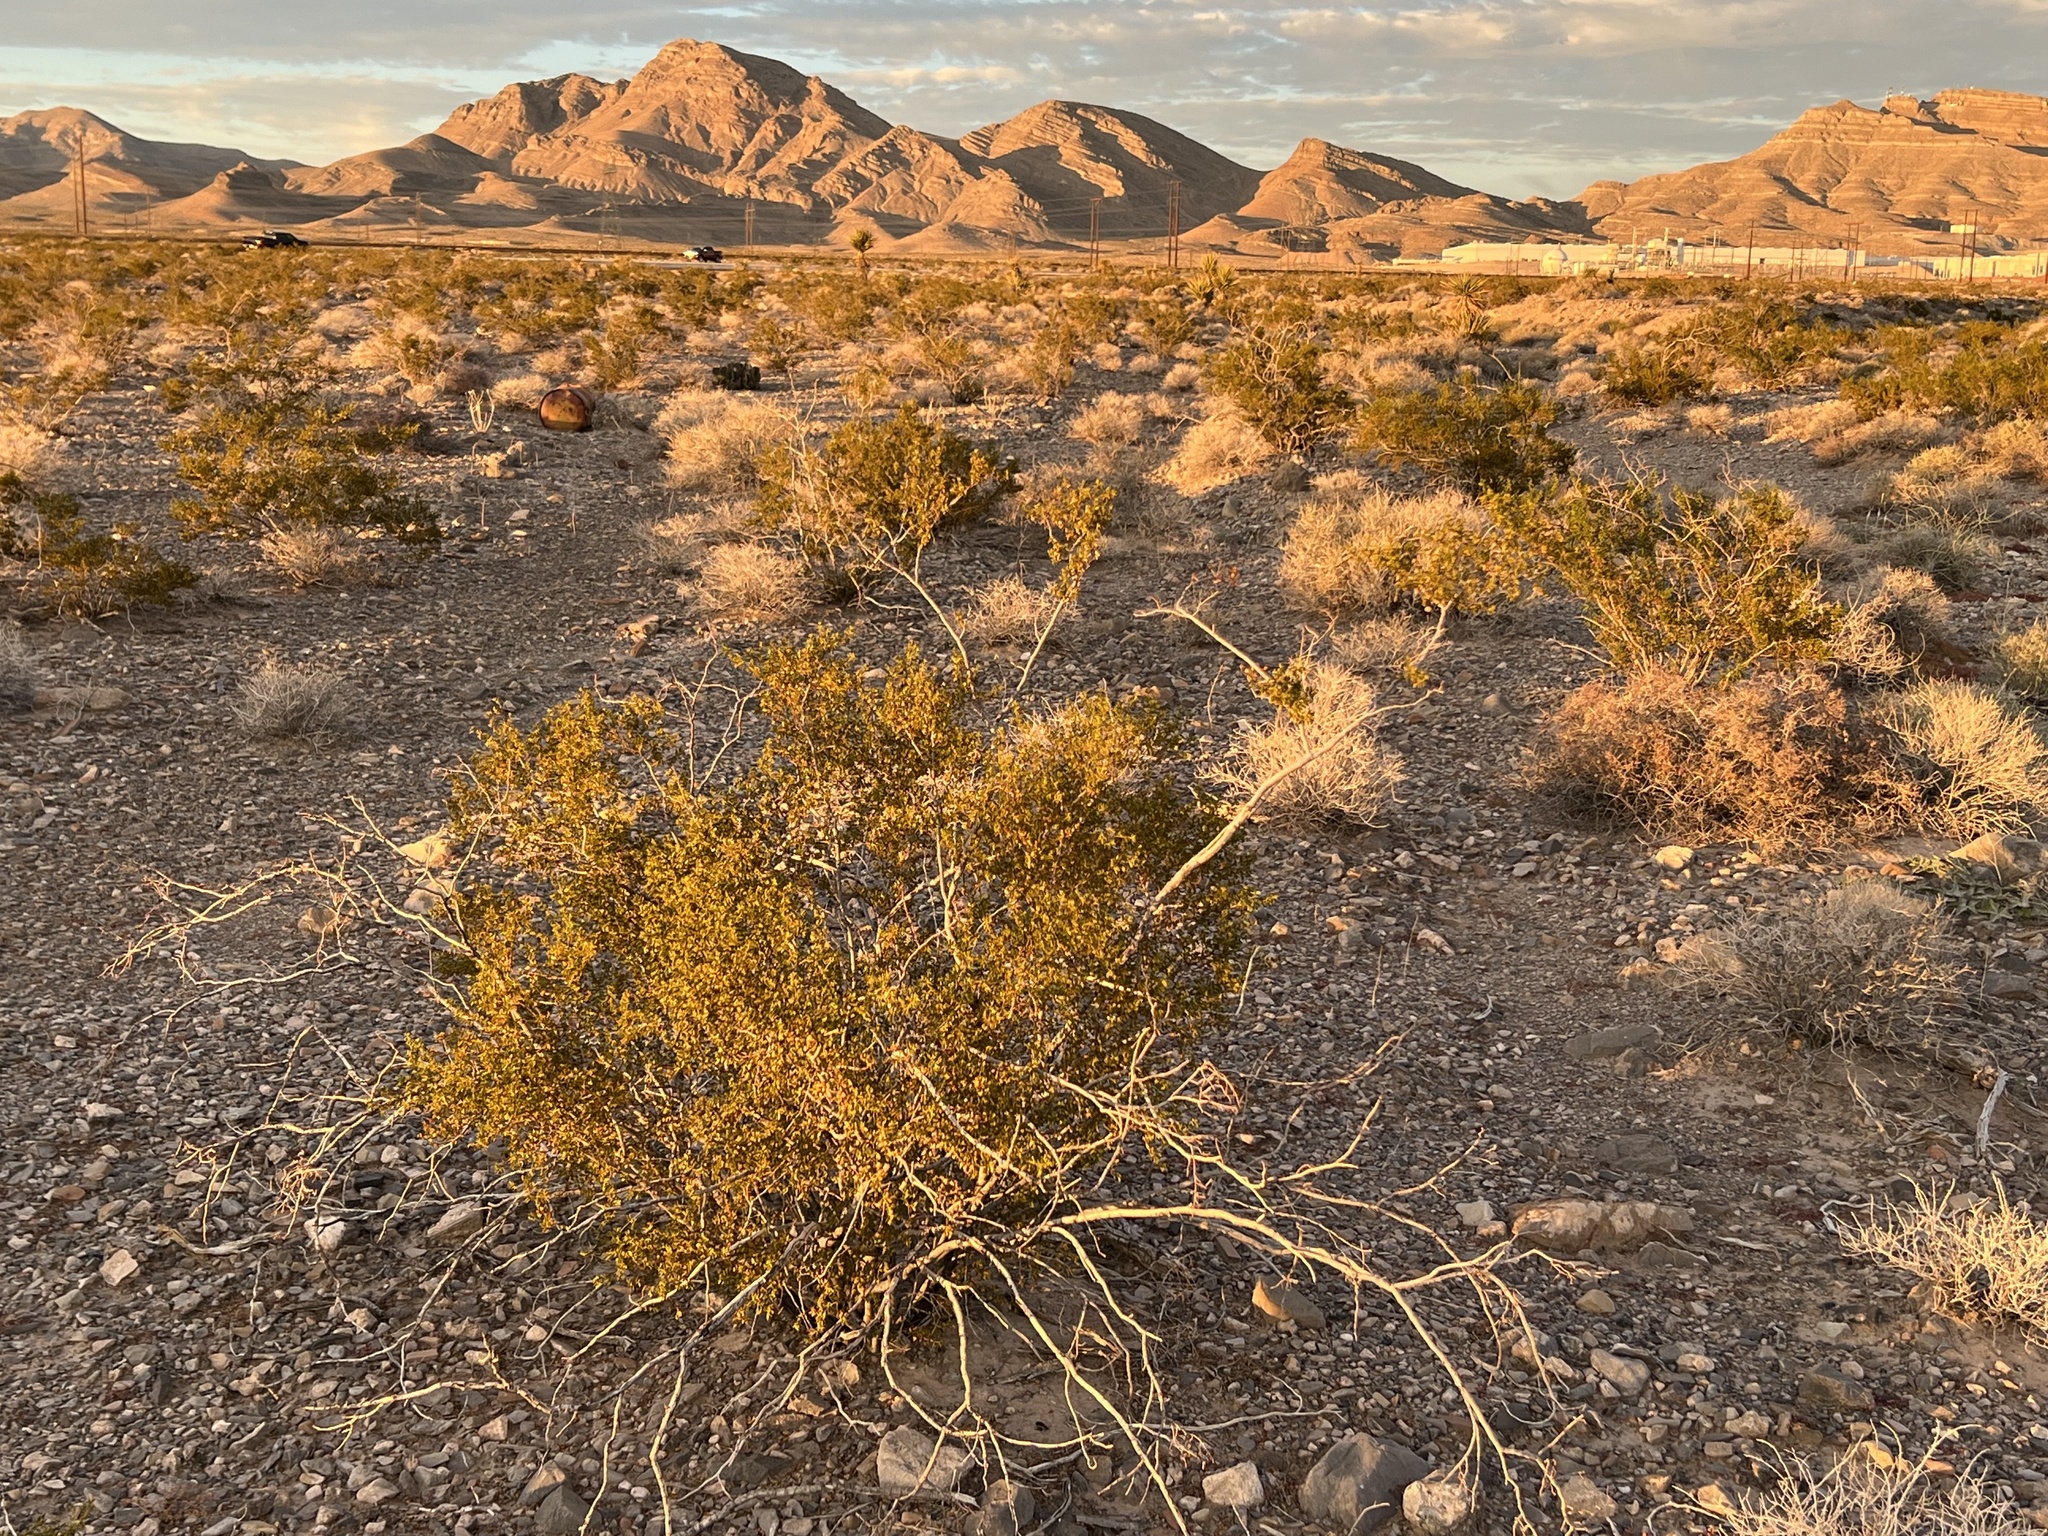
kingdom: Plantae
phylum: Tracheophyta
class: Magnoliopsida
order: Zygophyllales
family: Zygophyllaceae
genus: Larrea
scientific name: Larrea tridentata
